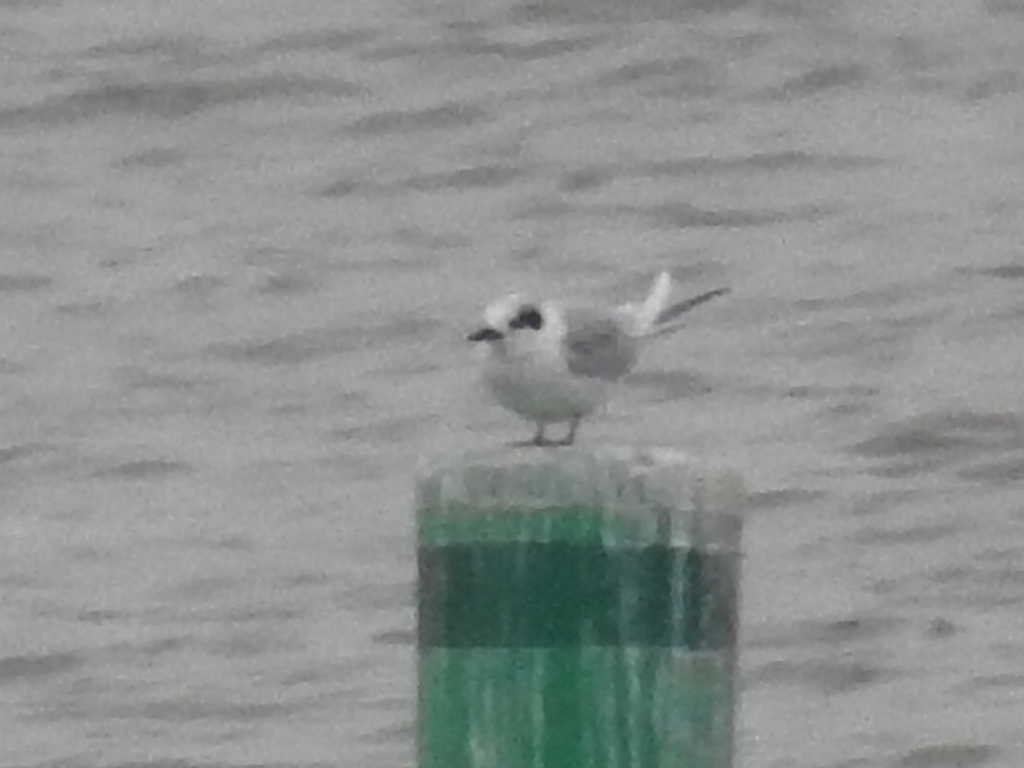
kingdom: Animalia
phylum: Chordata
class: Aves
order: Charadriiformes
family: Laridae
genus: Sterna
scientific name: Sterna forsteri
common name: Forster's tern
